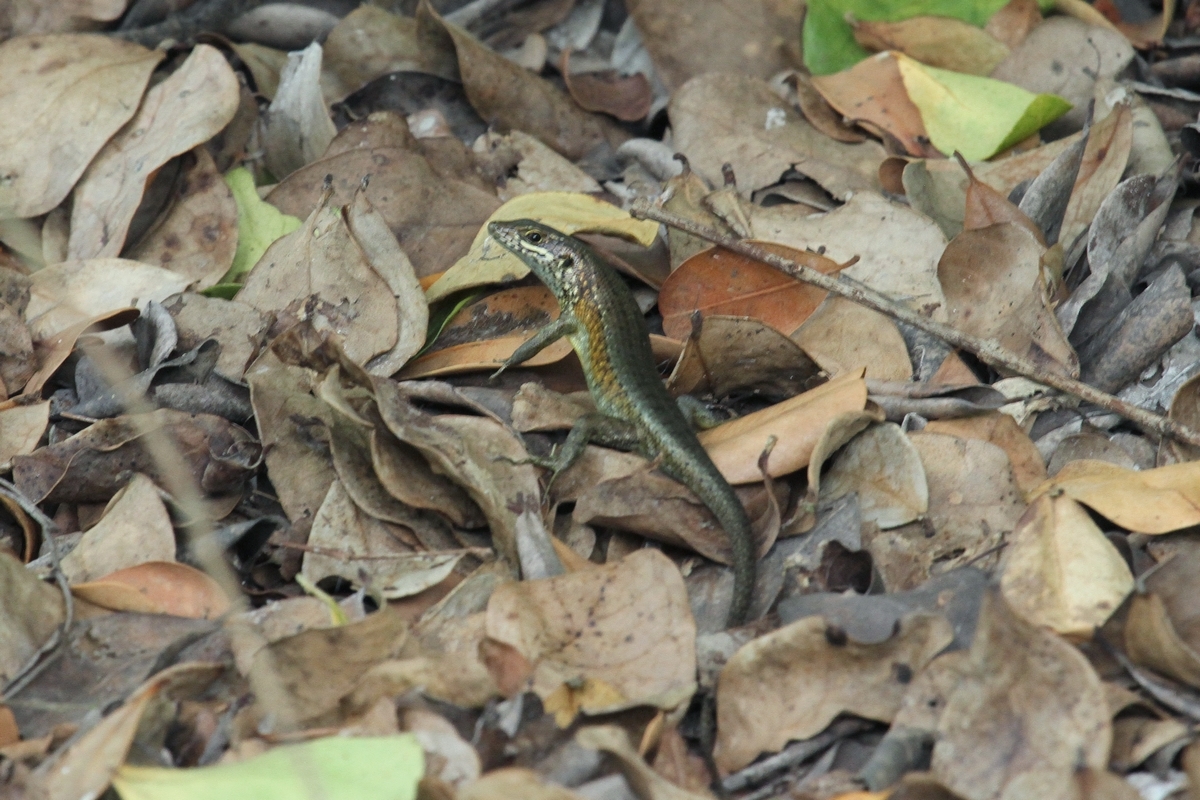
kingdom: Animalia
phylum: Chordata
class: Squamata
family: Scincidae
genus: Trachylepis
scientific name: Trachylepis maculilabris
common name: Speckle-lipped mabuya
